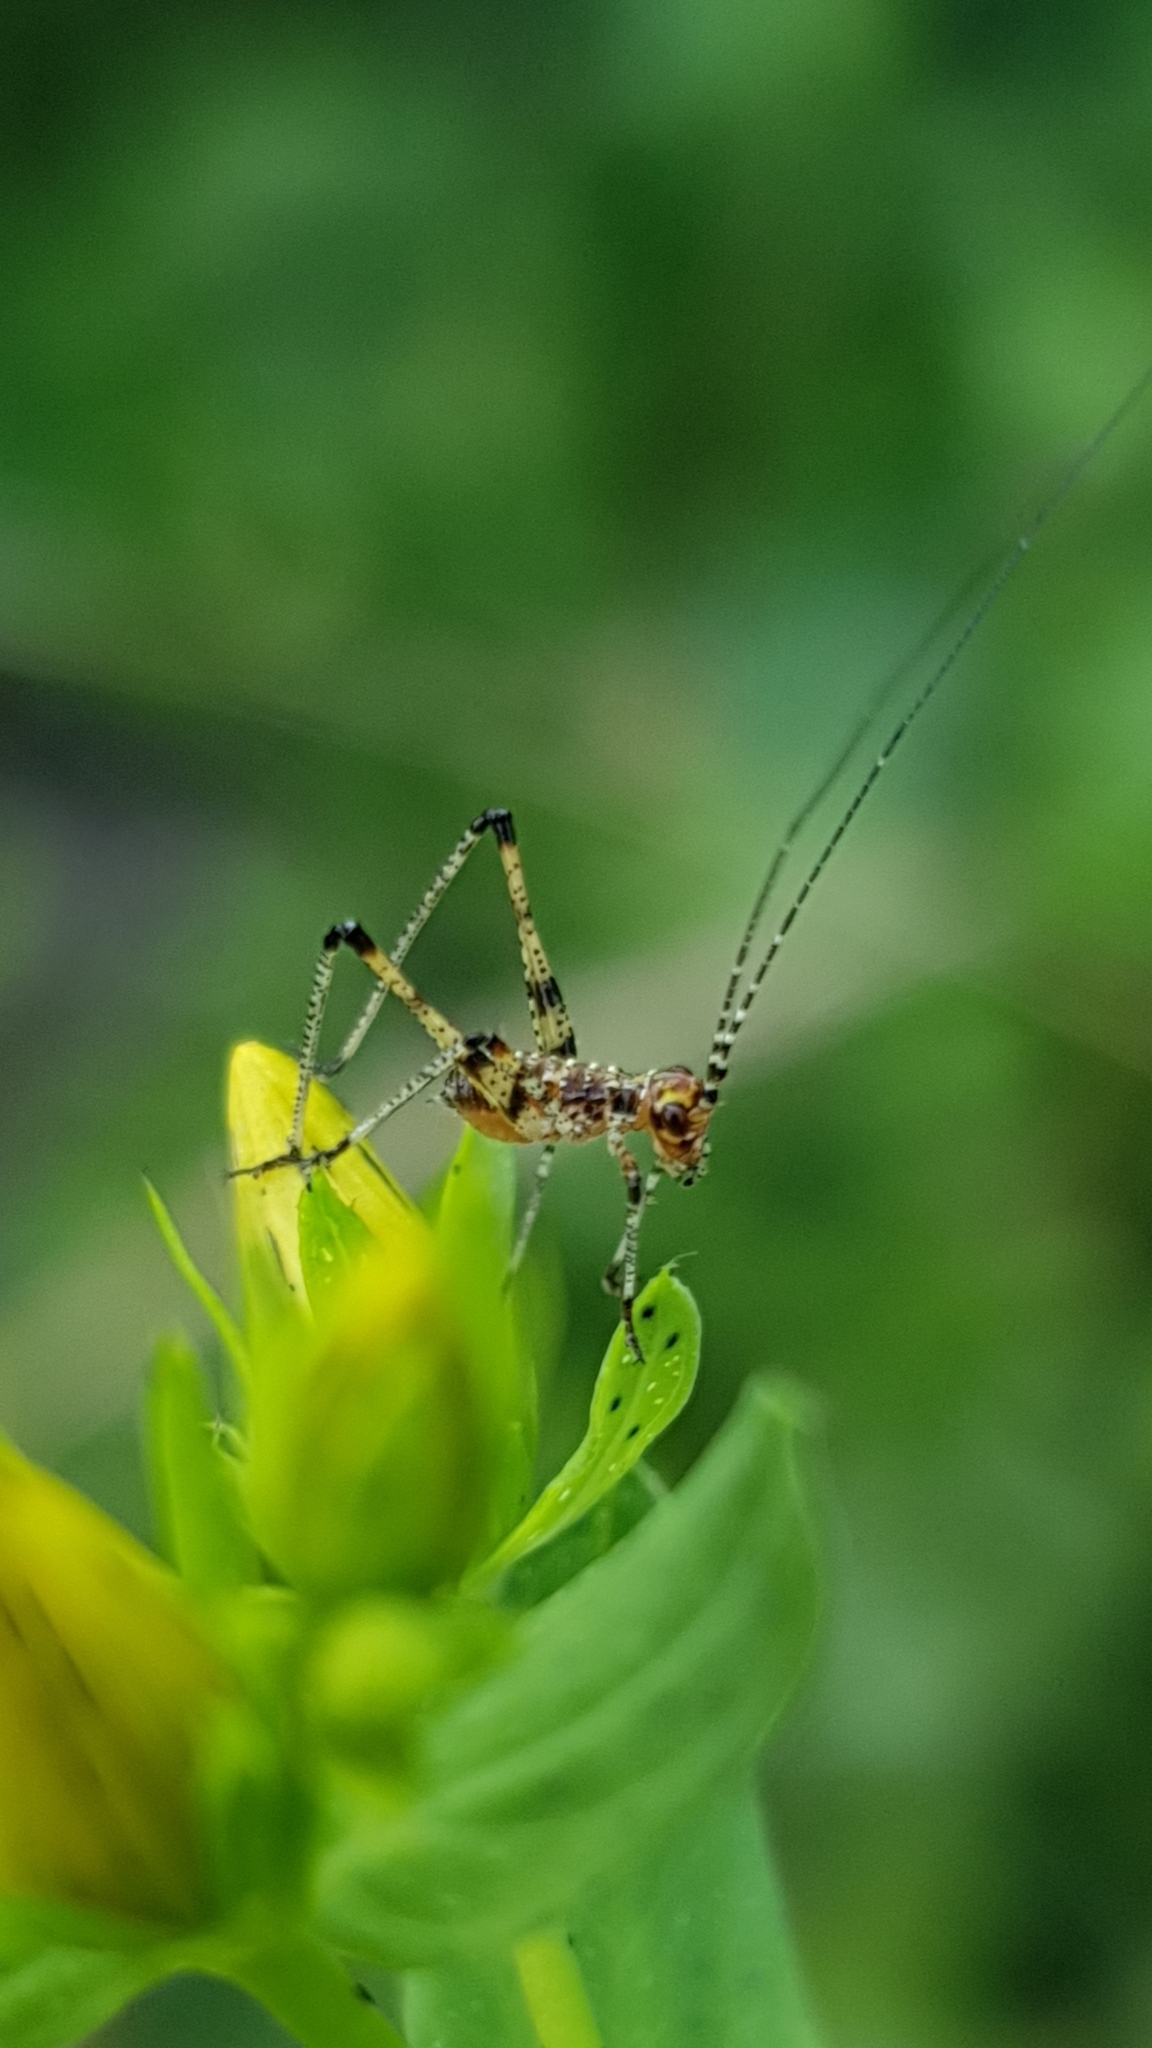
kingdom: Animalia
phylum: Arthropoda
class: Insecta
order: Orthoptera
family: Tettigoniidae
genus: Phaneroptera
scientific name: Phaneroptera nana
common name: Southern sickle bush-cricket
